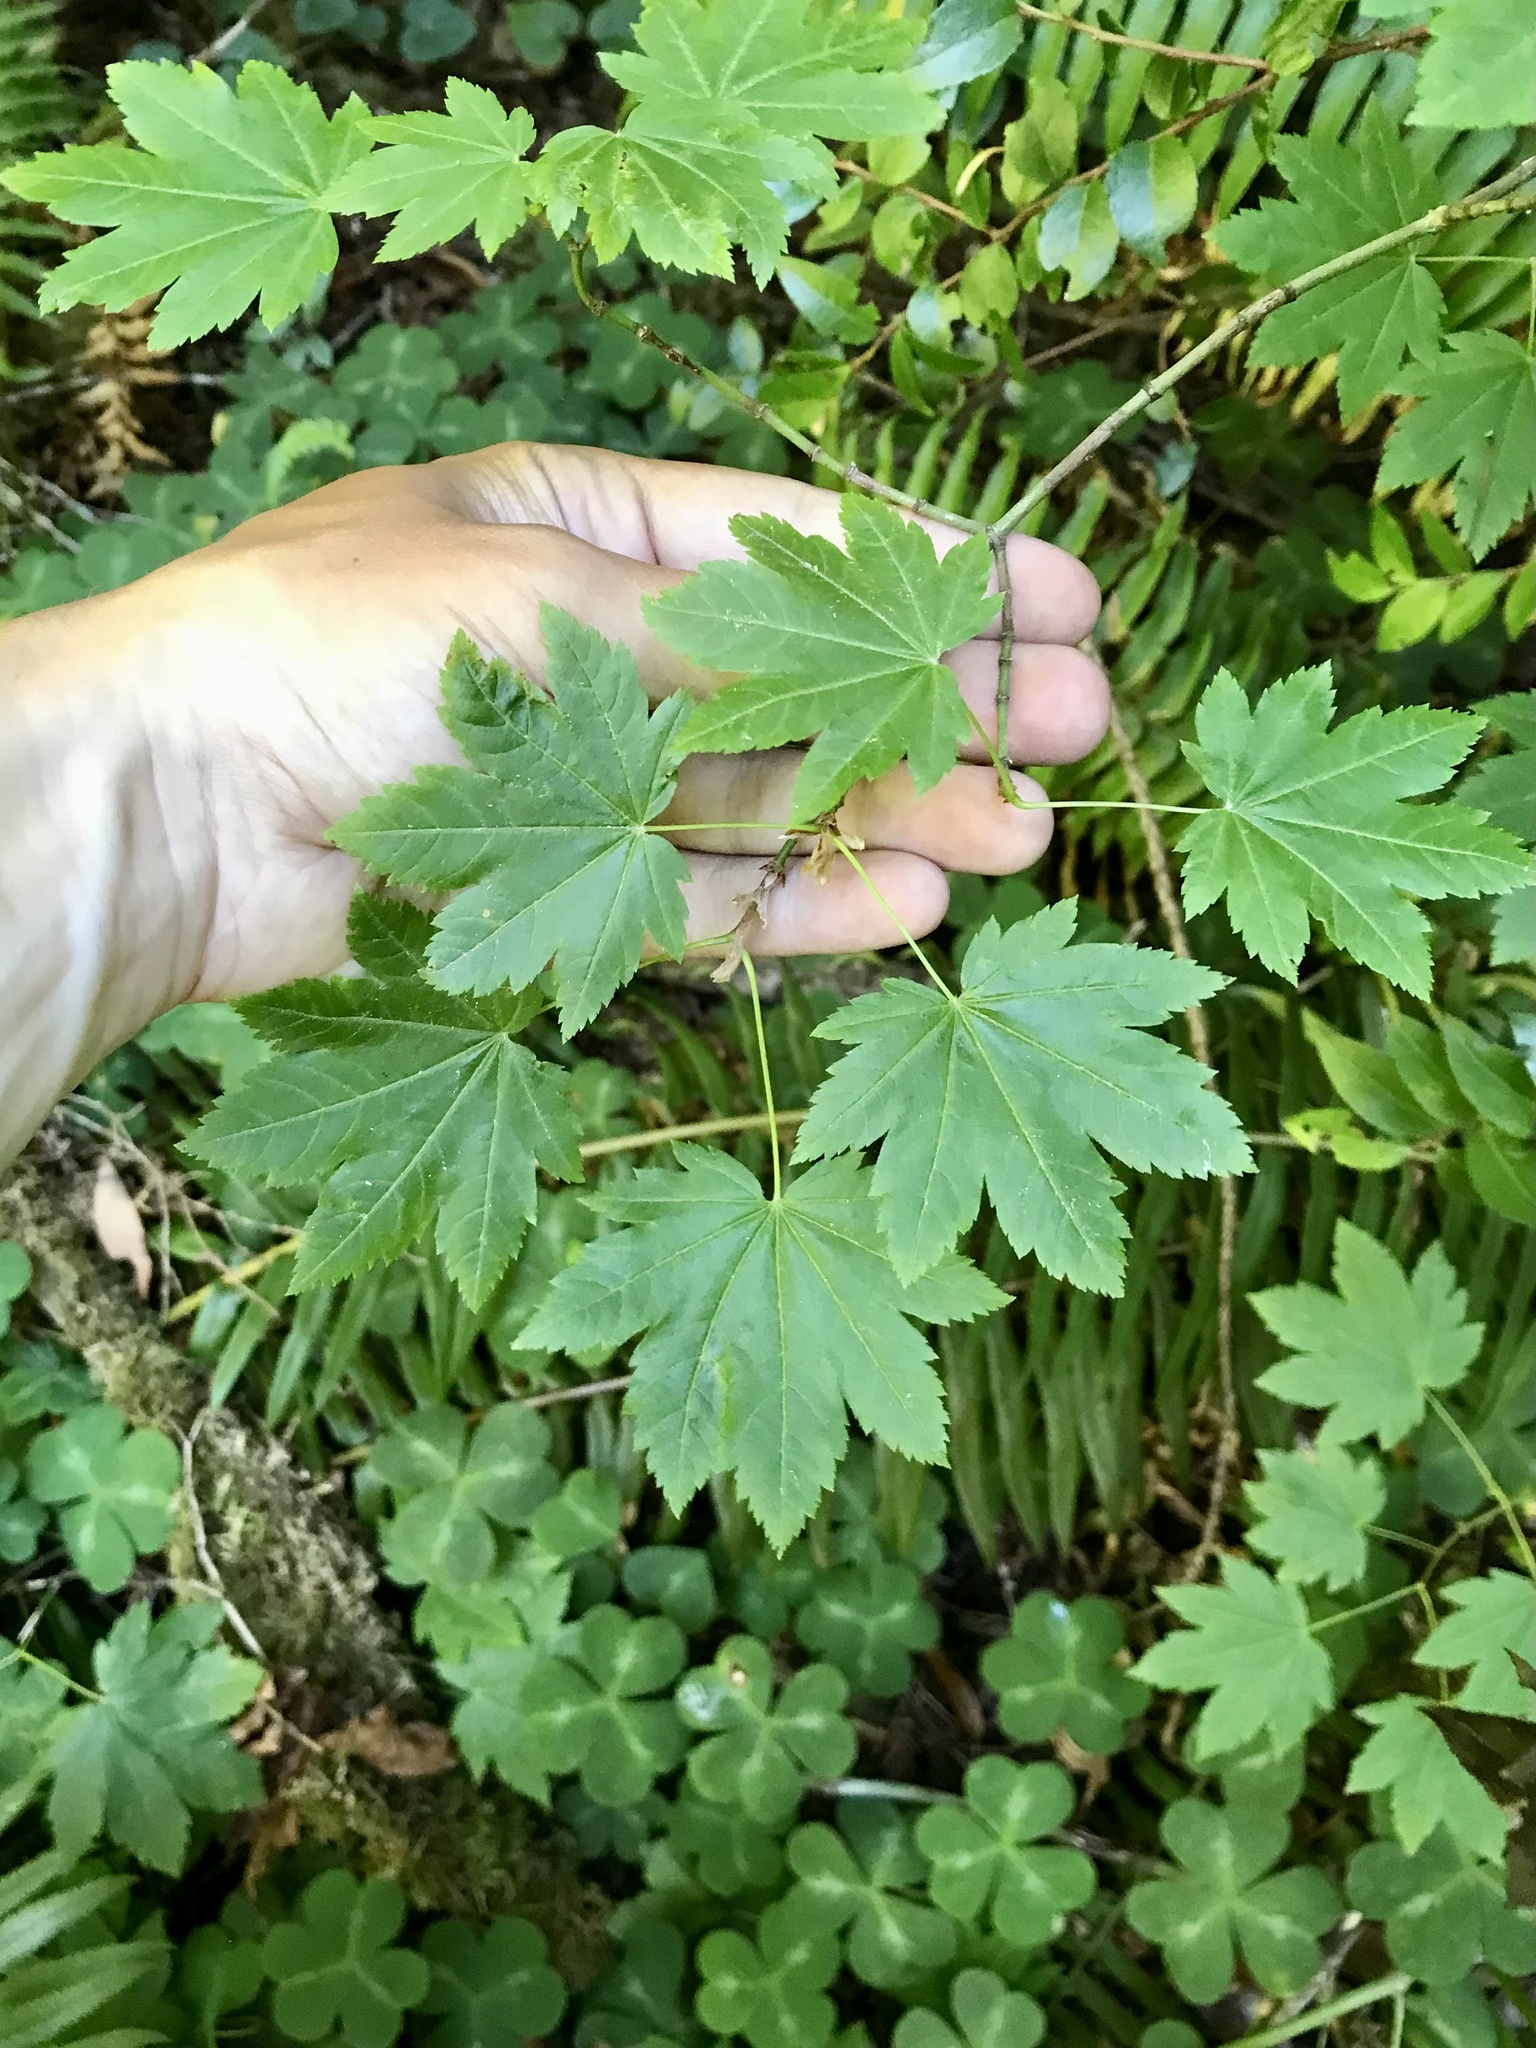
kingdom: Plantae
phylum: Tracheophyta
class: Magnoliopsida
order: Sapindales
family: Sapindaceae
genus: Acer
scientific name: Acer circinatum
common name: Vine maple
